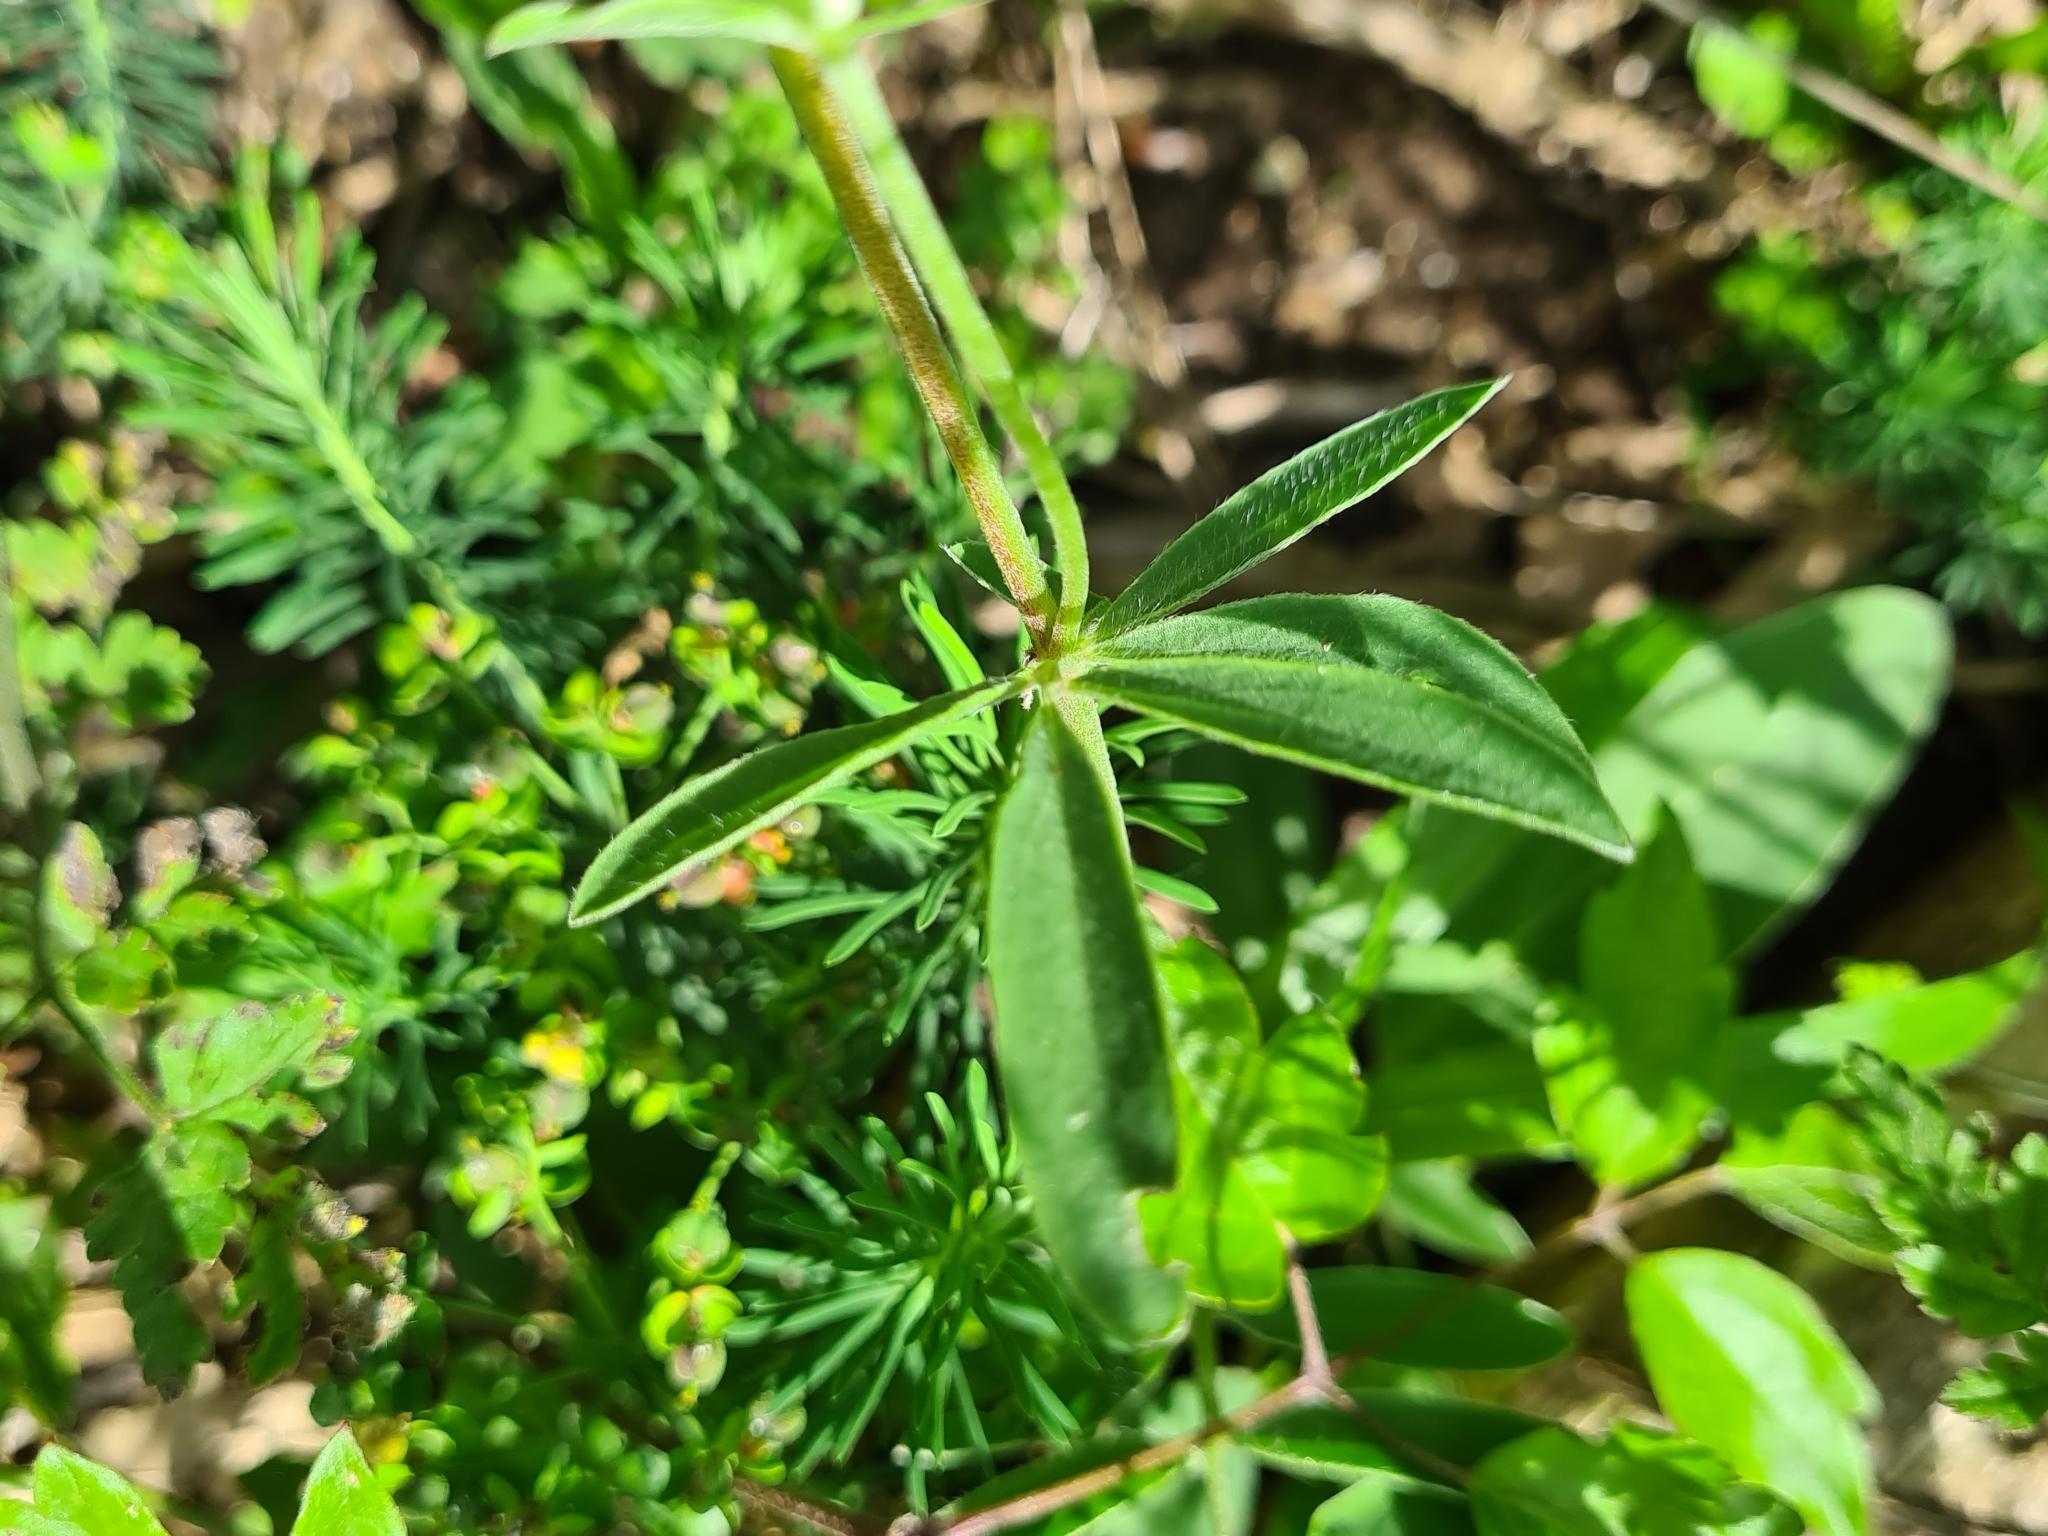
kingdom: Plantae
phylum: Tracheophyta
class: Magnoliopsida
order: Fabales
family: Fabaceae
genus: Anthyllis
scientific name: Anthyllis vulneraria
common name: Kidney vetch
